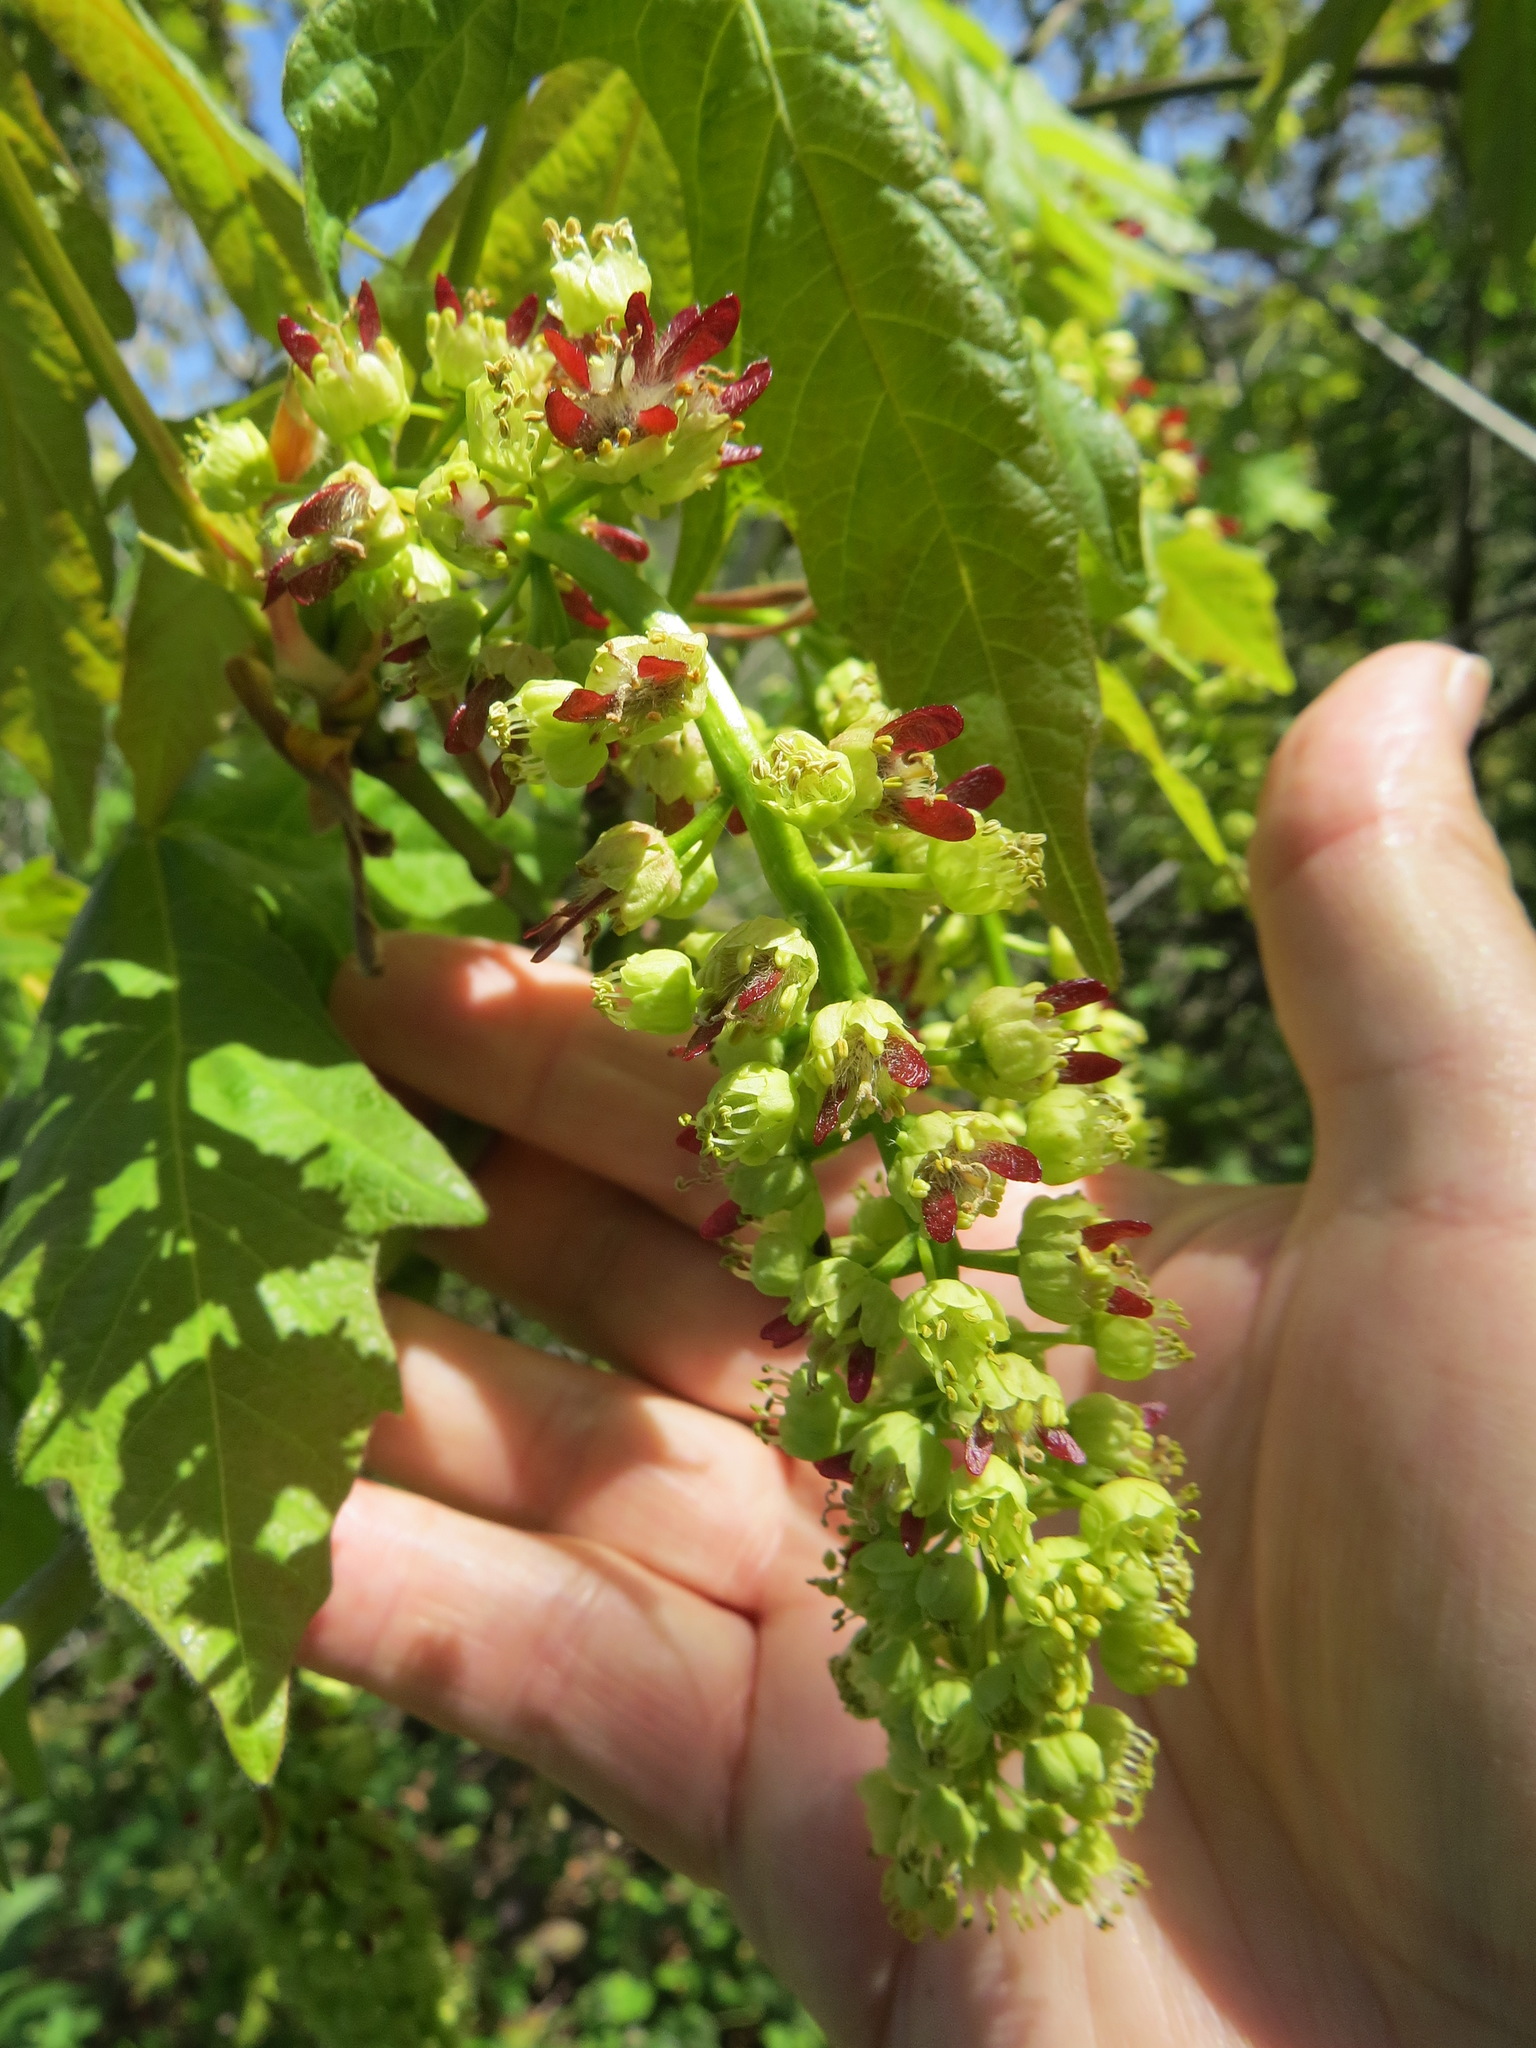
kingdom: Plantae
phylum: Tracheophyta
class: Magnoliopsida
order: Sapindales
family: Sapindaceae
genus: Acer
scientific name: Acer macrophyllum
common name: Oregon maple
